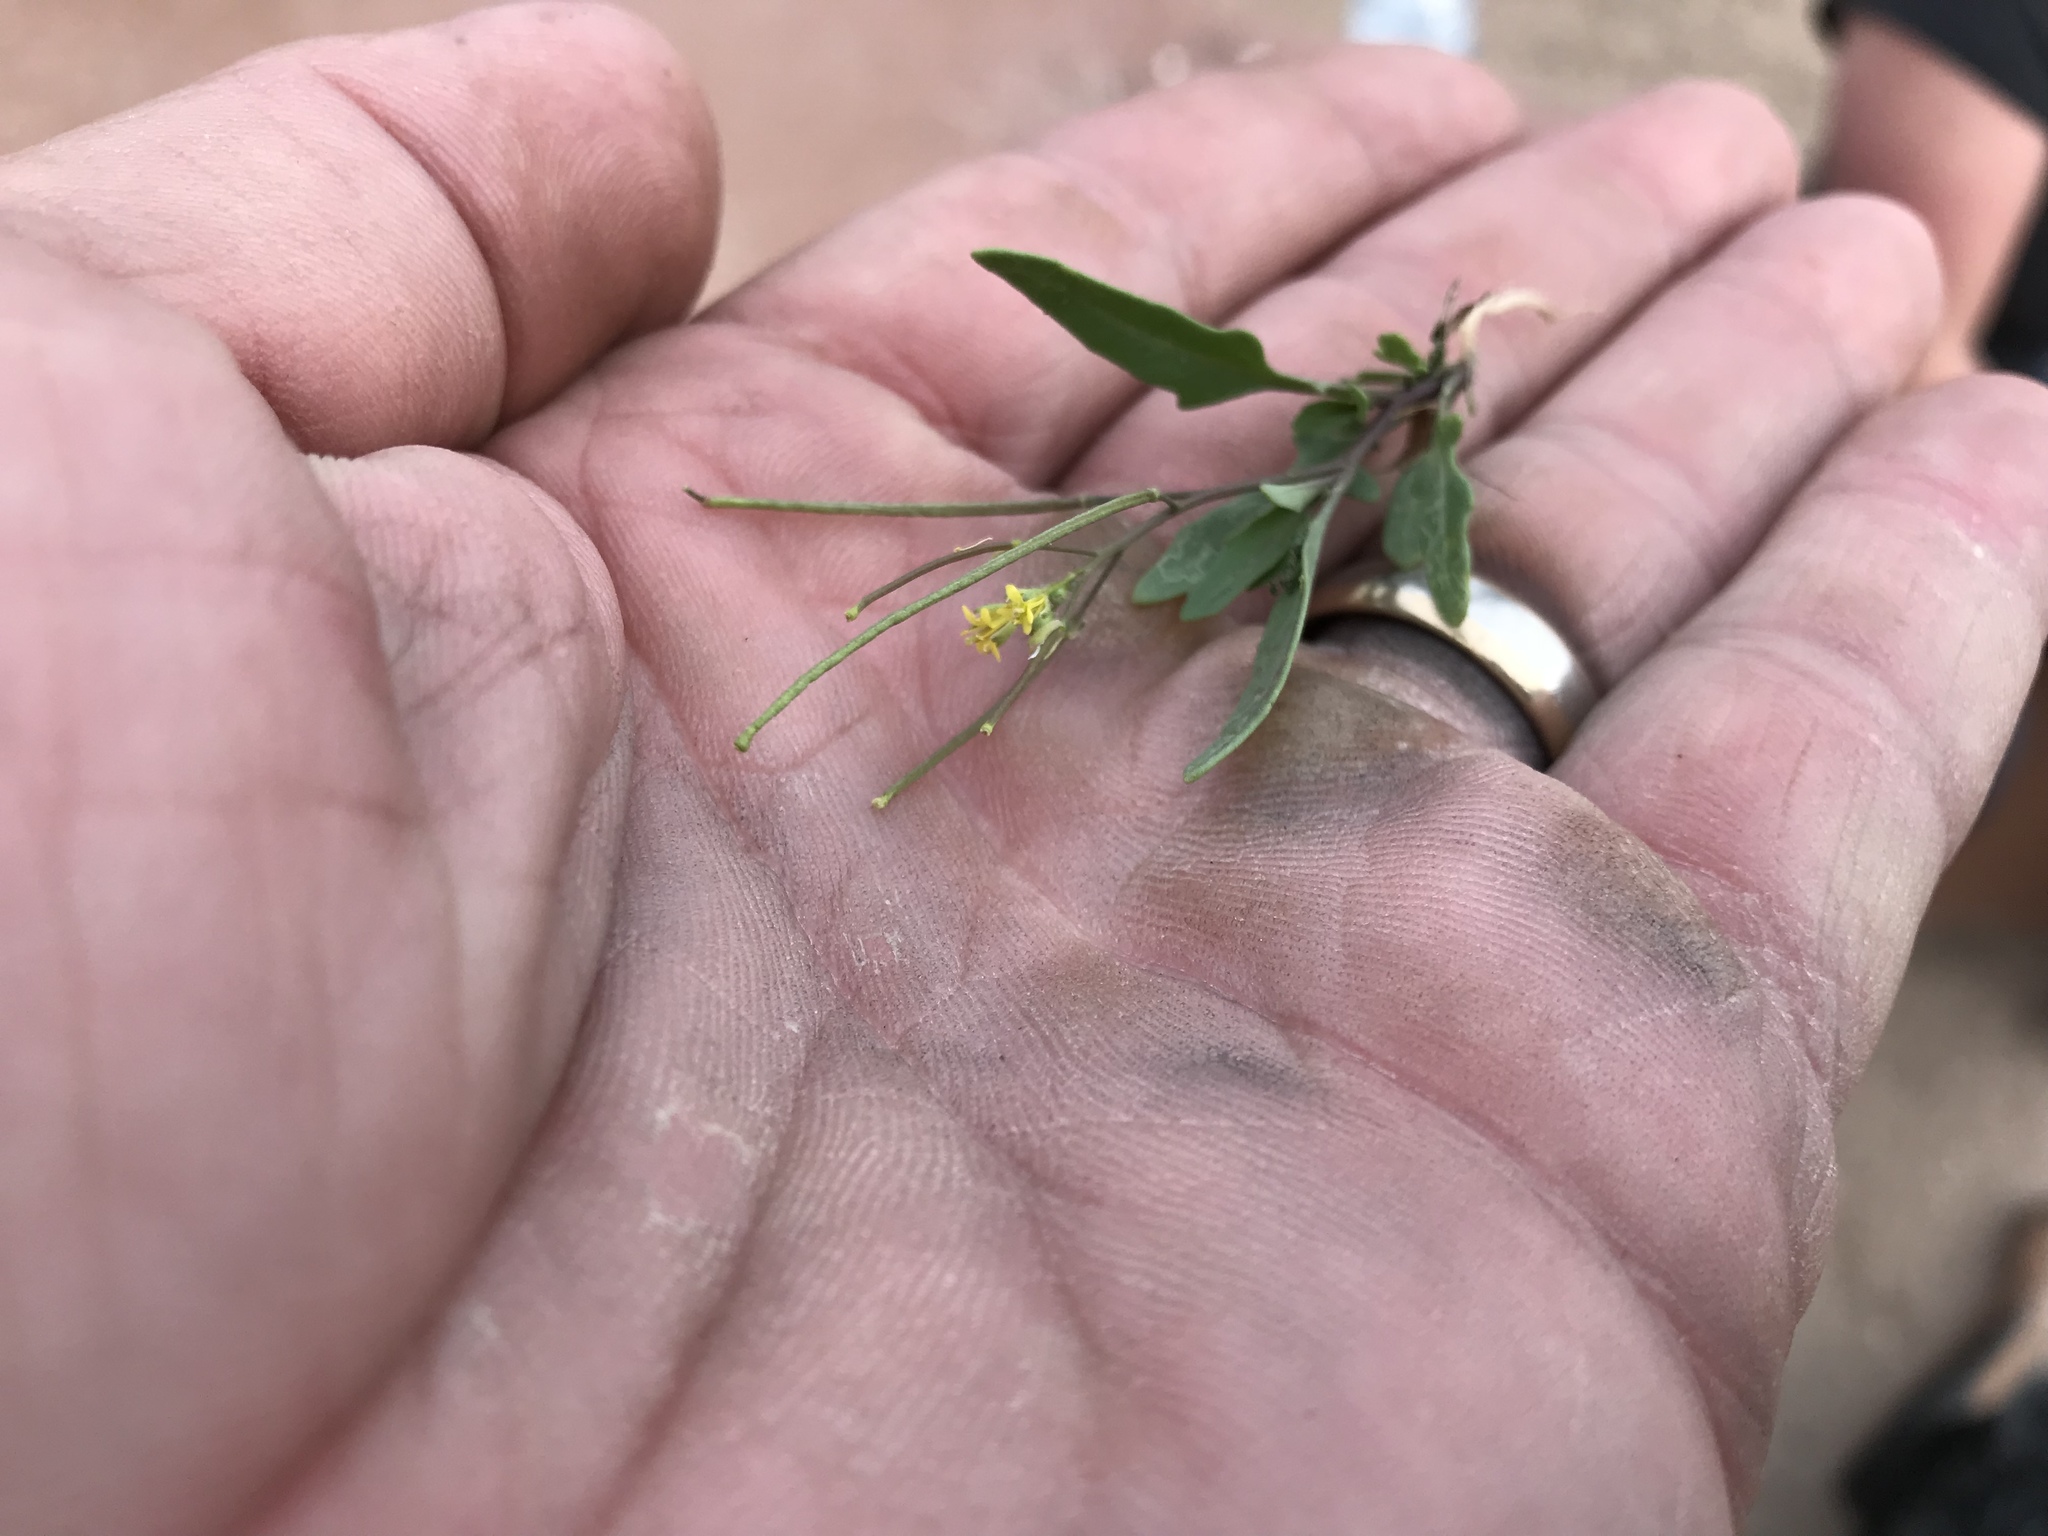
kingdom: Plantae
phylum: Tracheophyta
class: Magnoliopsida
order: Brassicales
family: Brassicaceae
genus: Sisymbrium
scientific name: Sisymbrium irio
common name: London rocket
